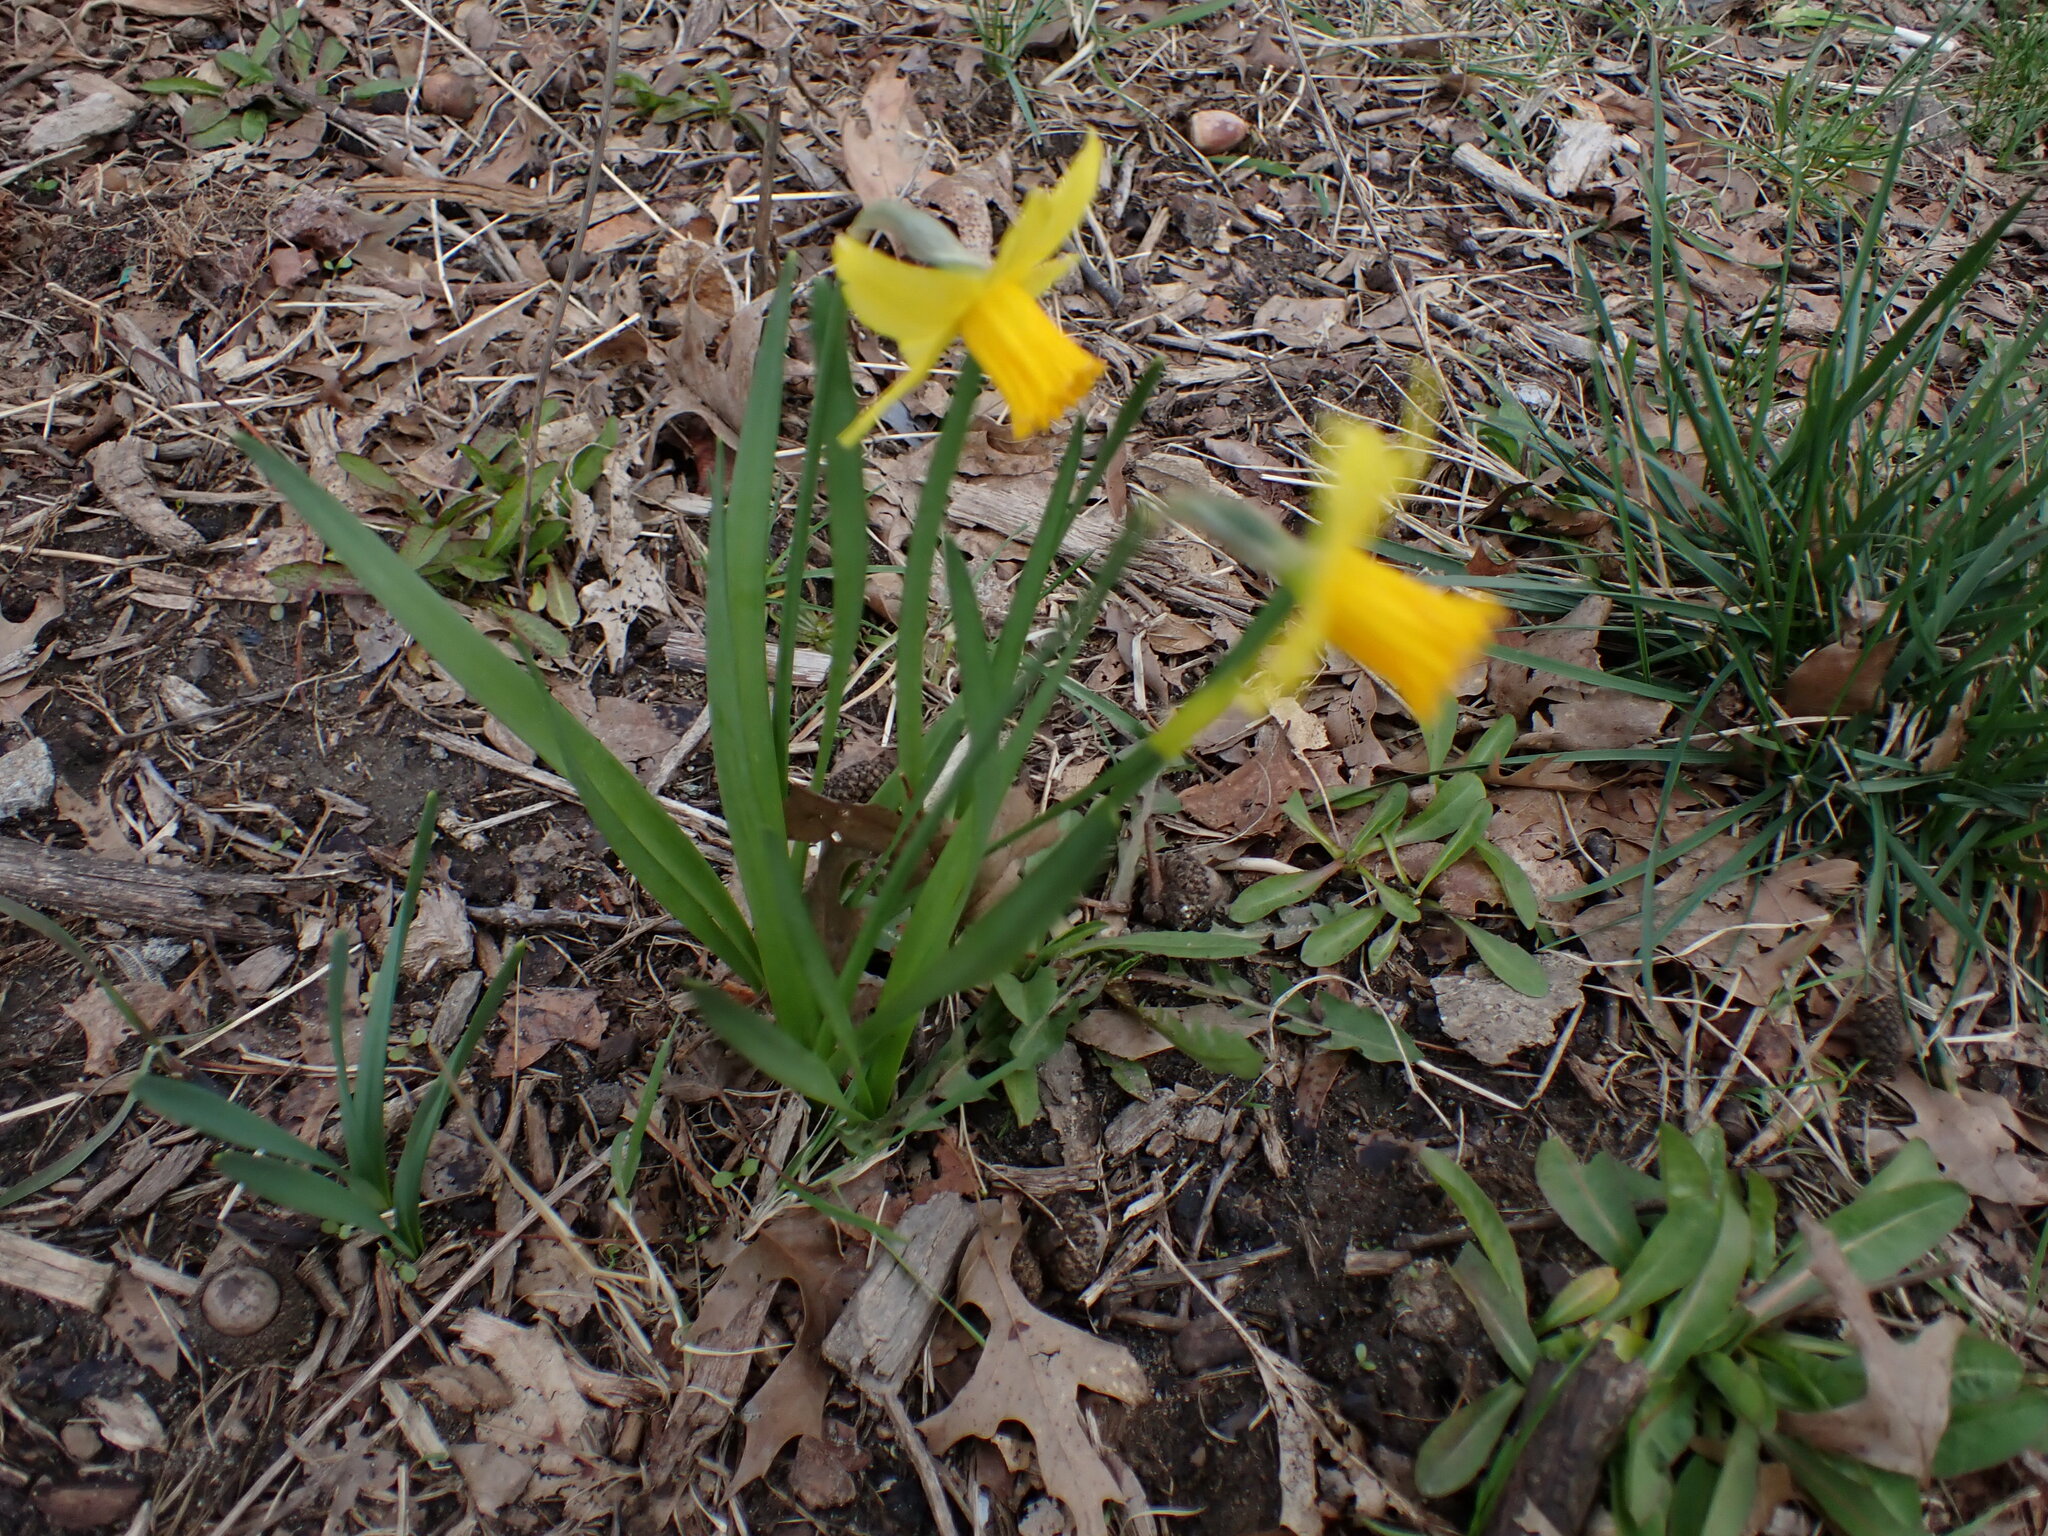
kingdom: Plantae
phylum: Tracheophyta
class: Liliopsida
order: Asparagales
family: Amaryllidaceae
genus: Narcissus
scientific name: Narcissus cyclazetta
